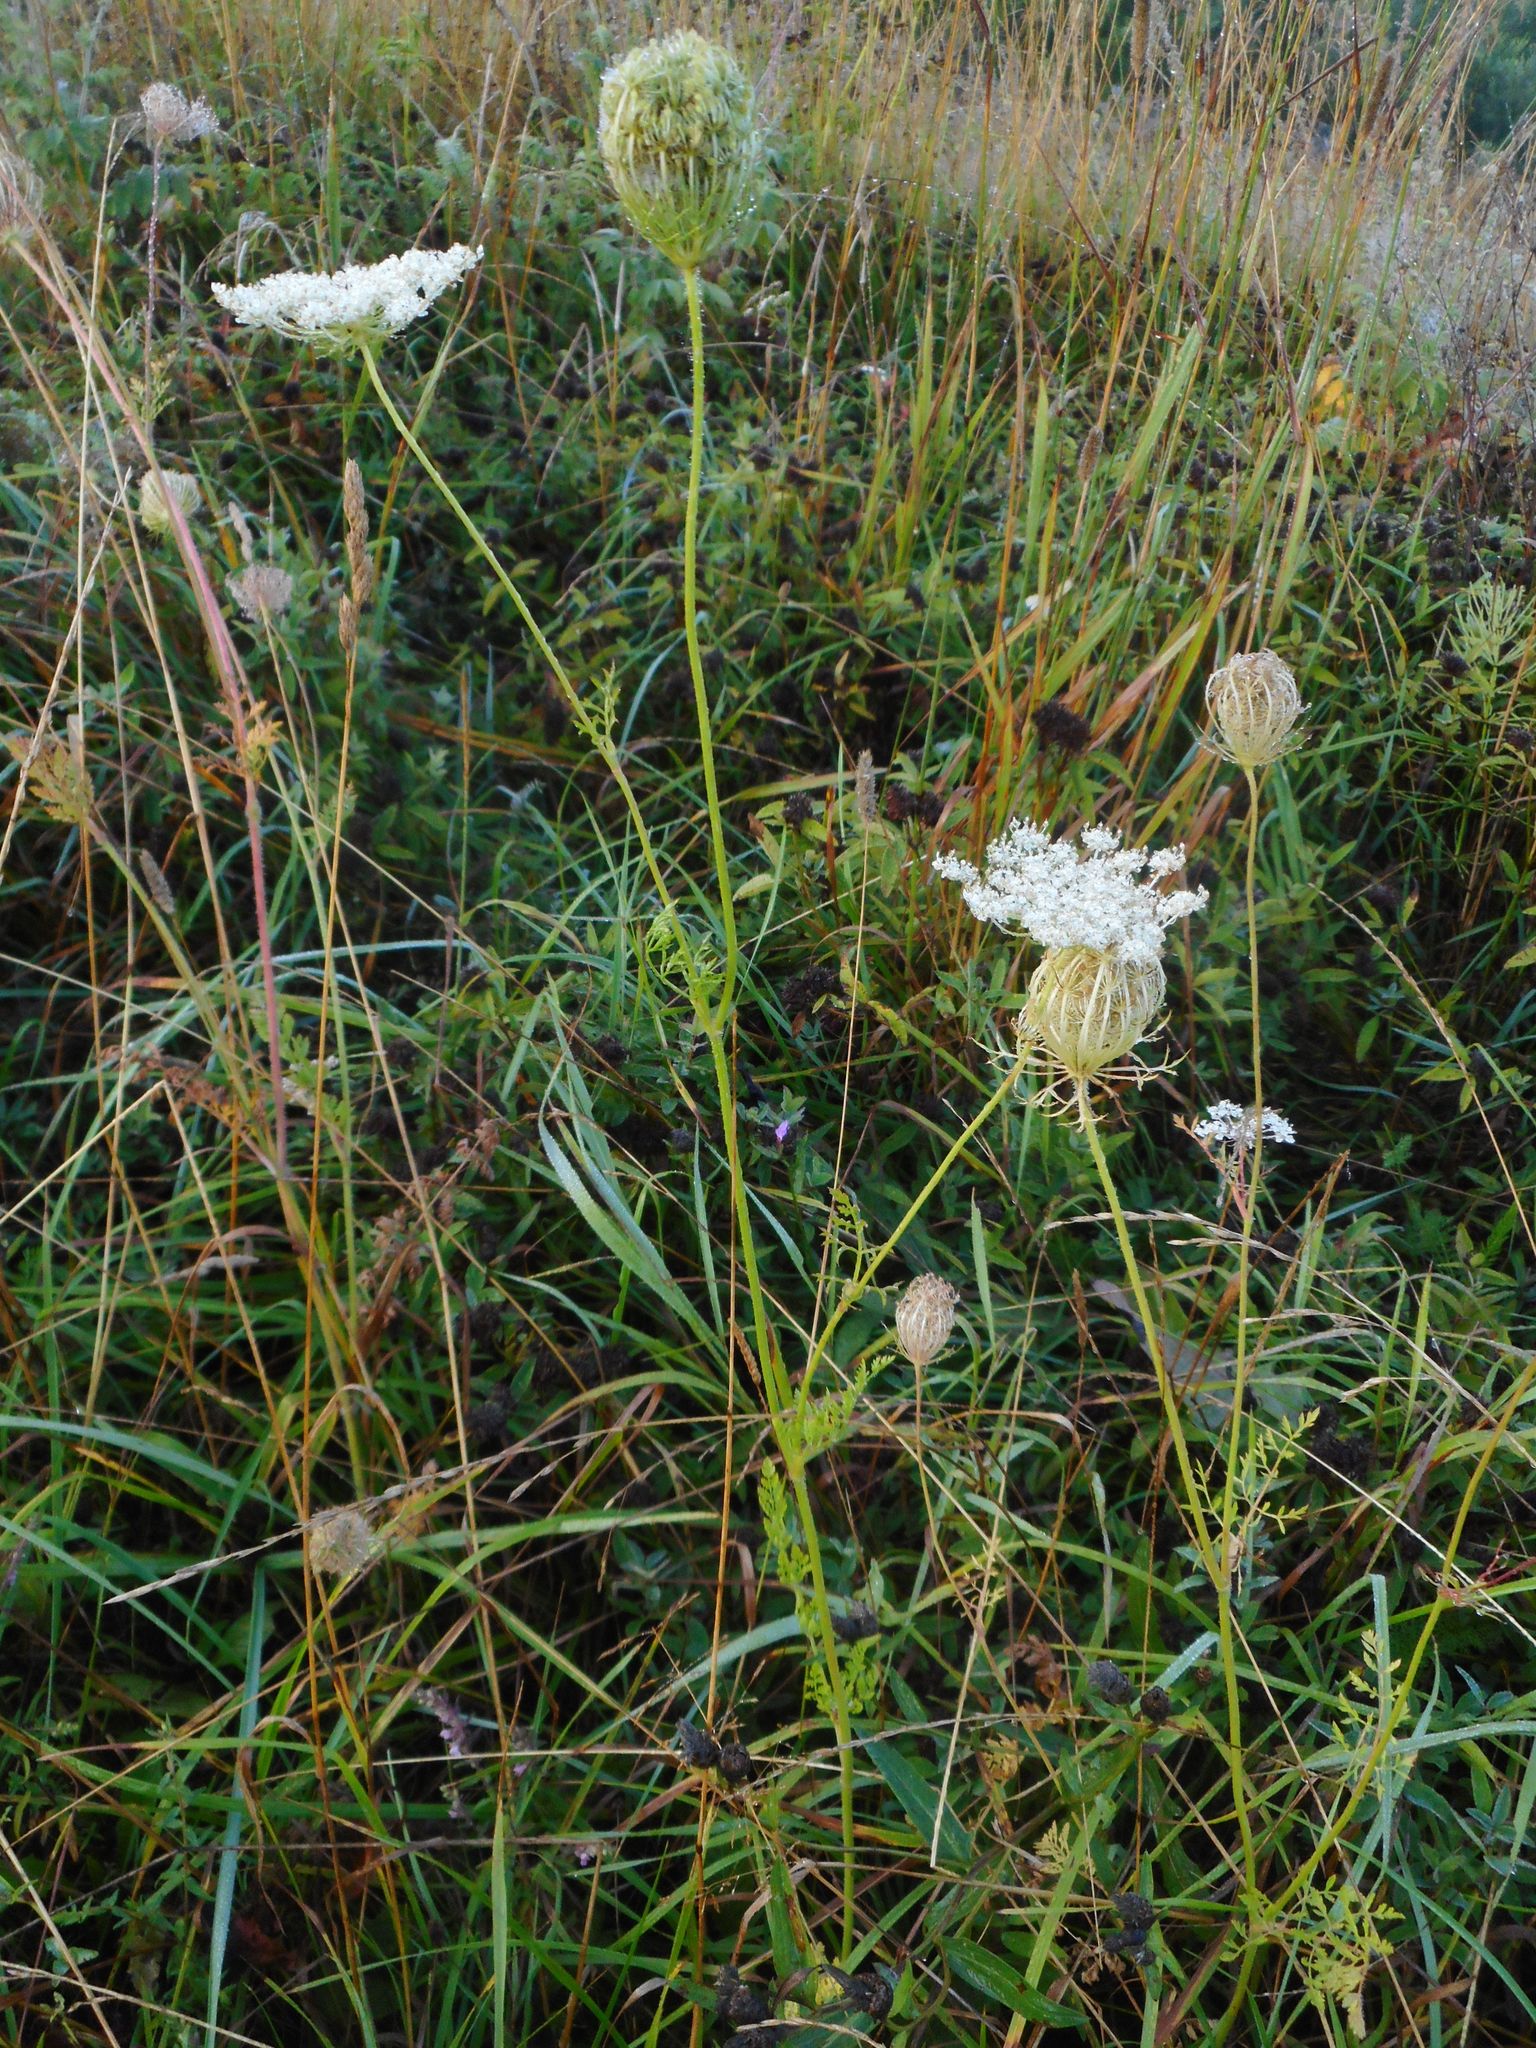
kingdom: Plantae
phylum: Tracheophyta
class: Magnoliopsida
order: Apiales
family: Apiaceae
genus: Daucus
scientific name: Daucus carota
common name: Wild carrot
